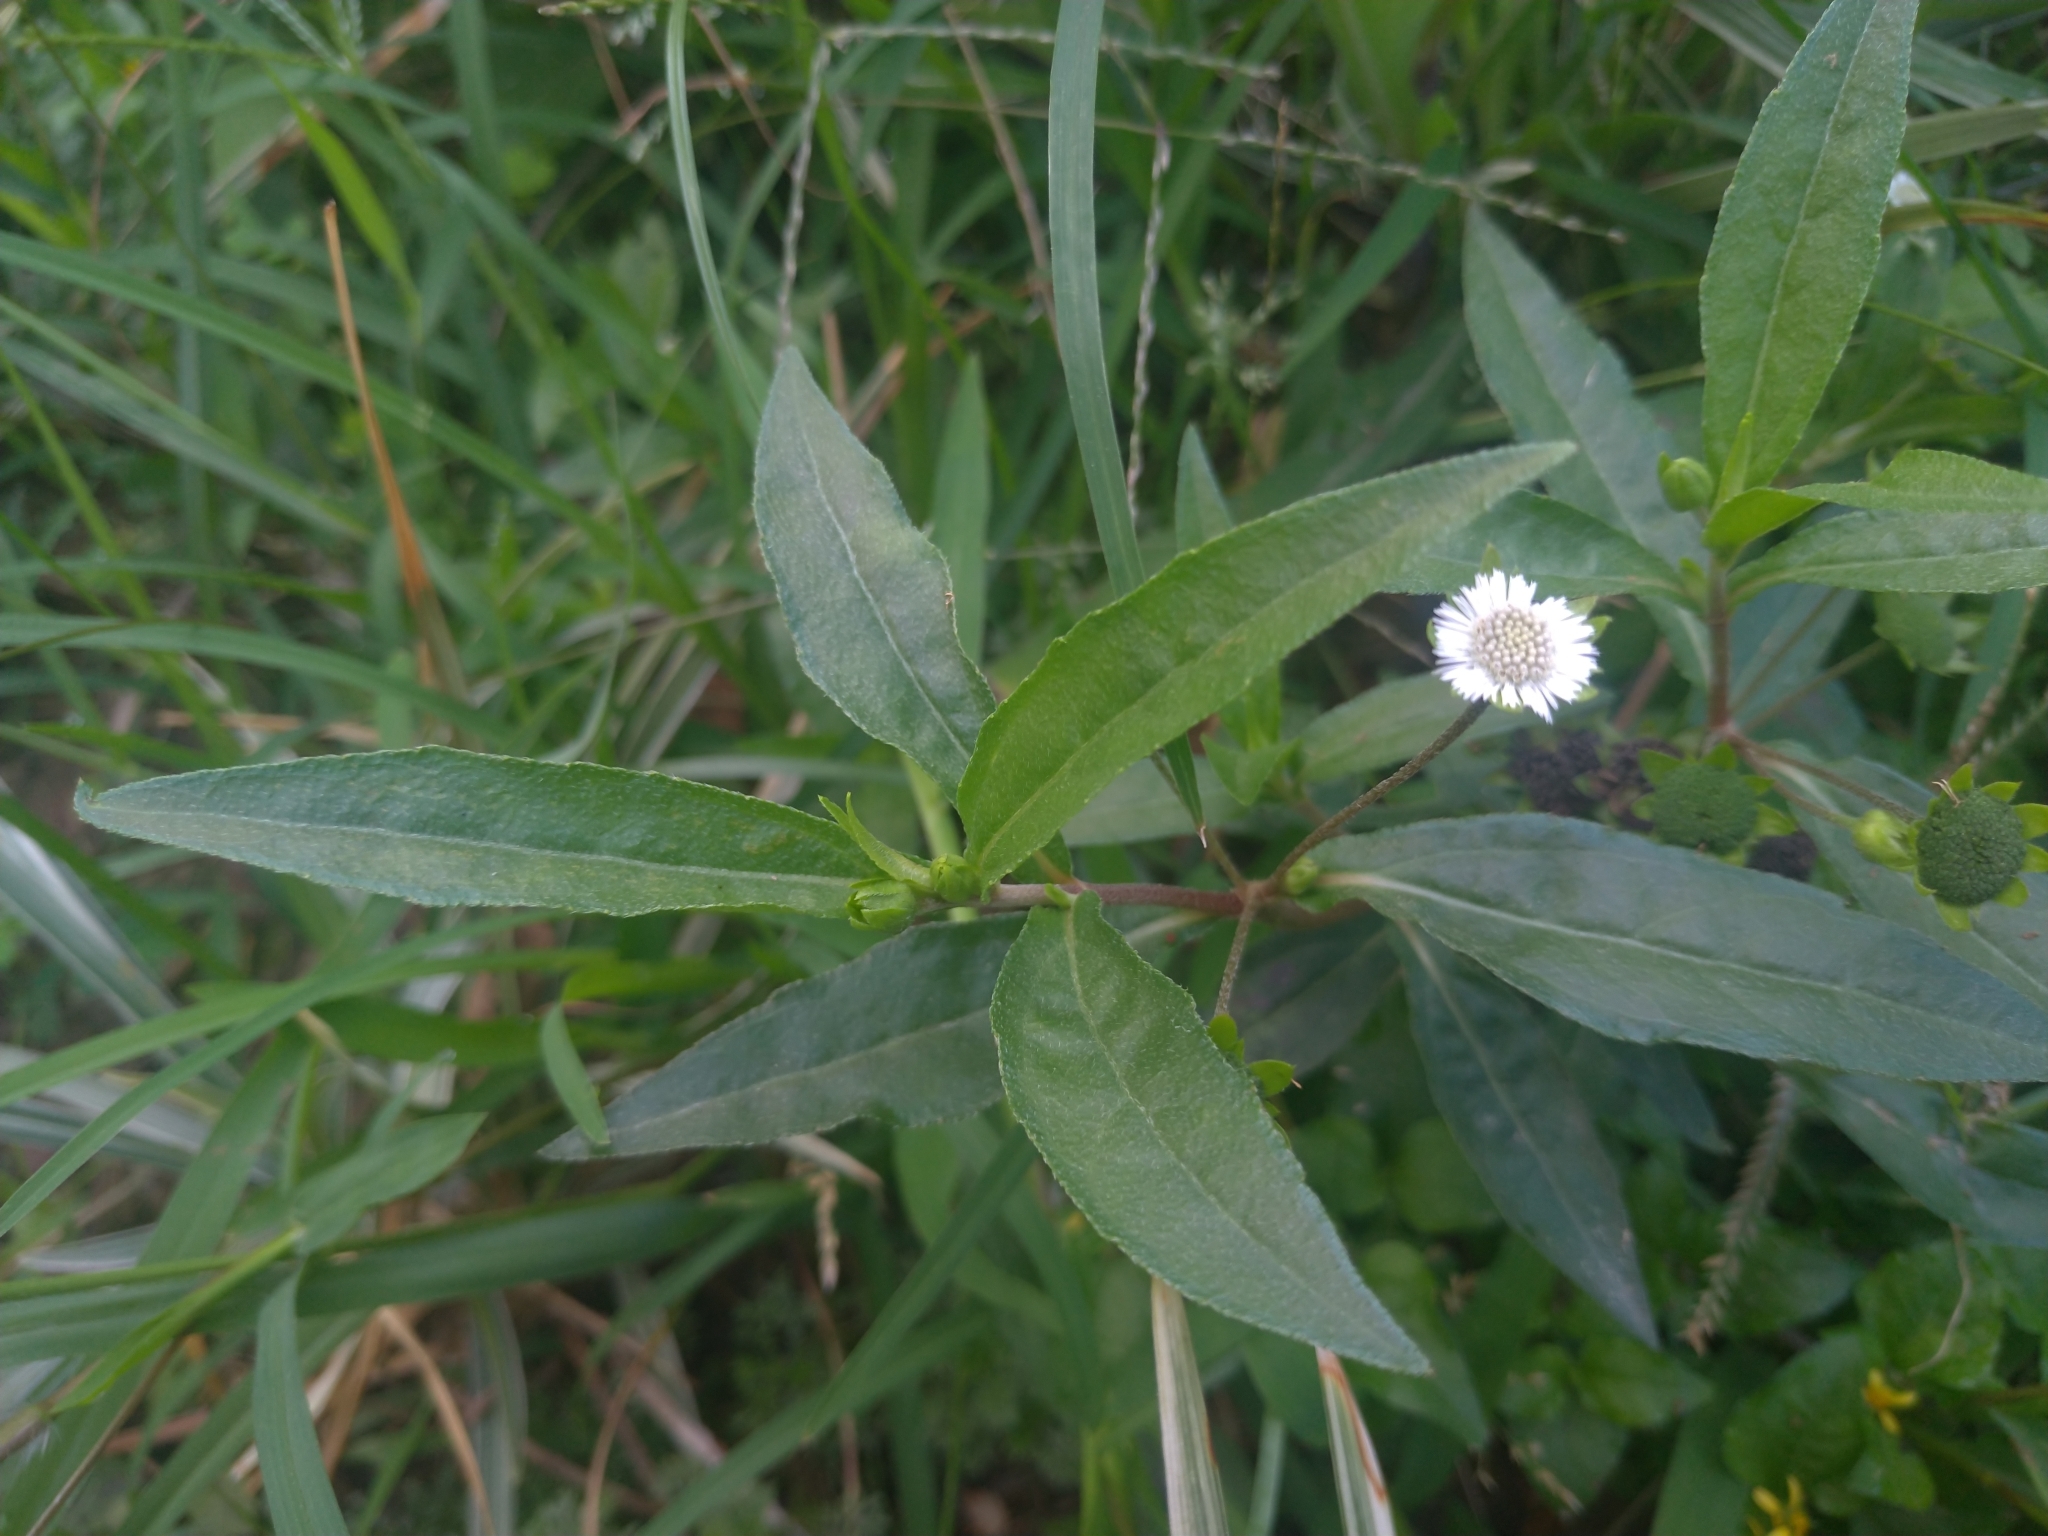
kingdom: Plantae
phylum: Tracheophyta
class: Magnoliopsida
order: Asterales
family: Asteraceae
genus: Eclipta
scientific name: Eclipta prostrata
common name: False daisy
